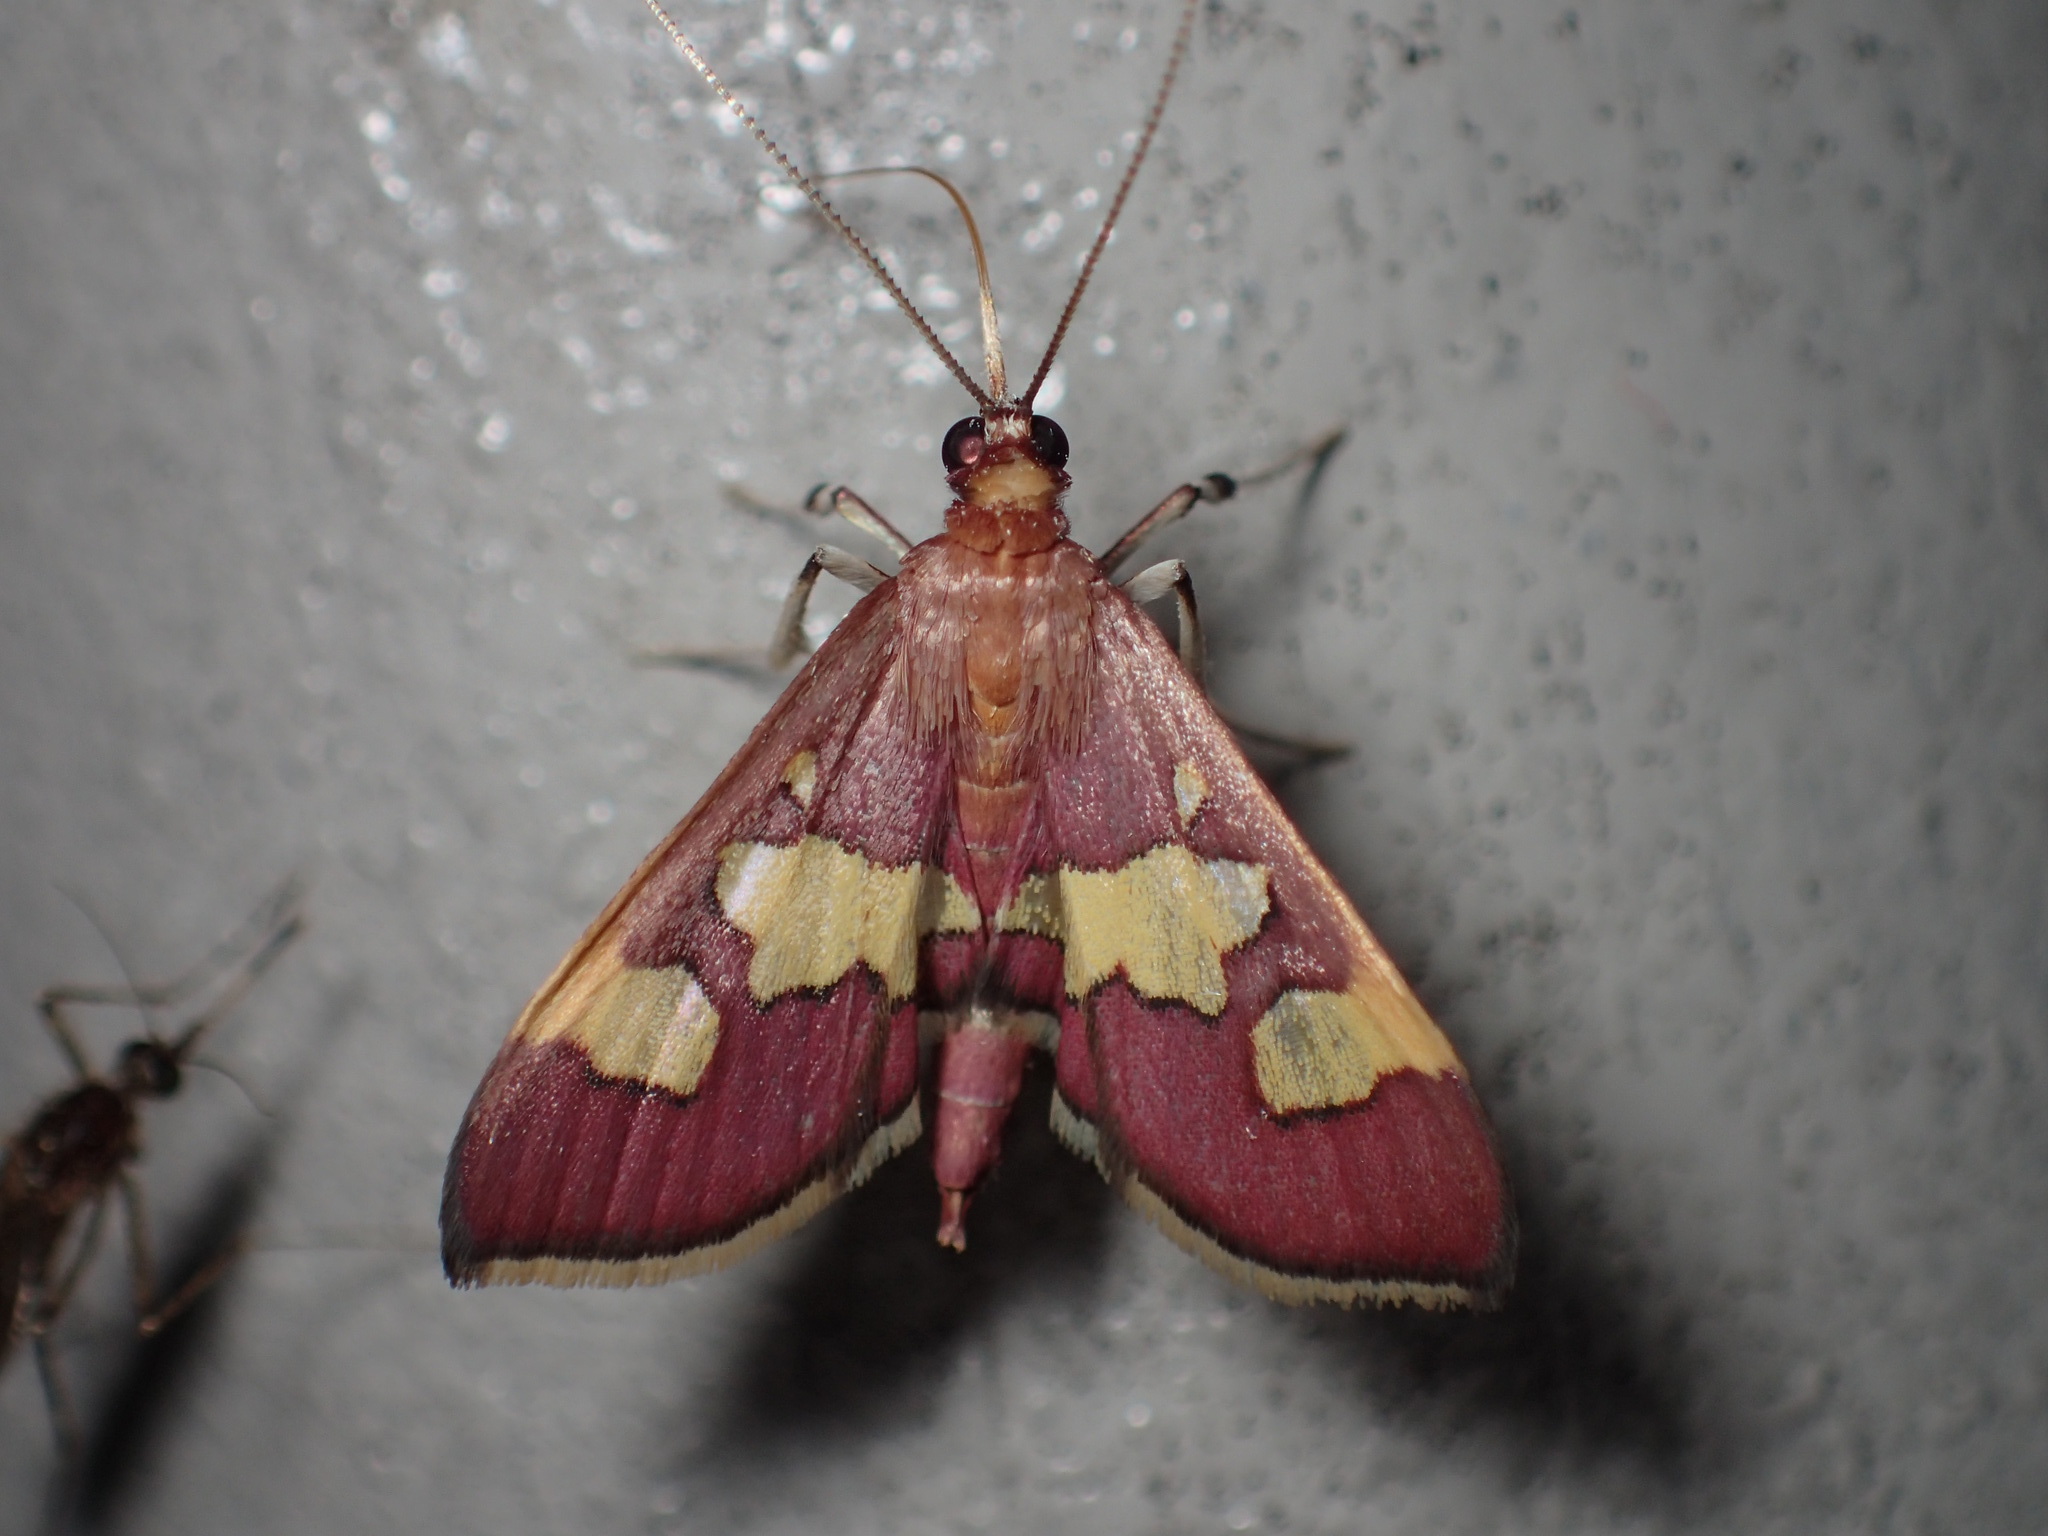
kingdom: Animalia
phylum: Arthropoda
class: Insecta
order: Lepidoptera
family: Crambidae
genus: Colomychus
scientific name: Colomychus talis
